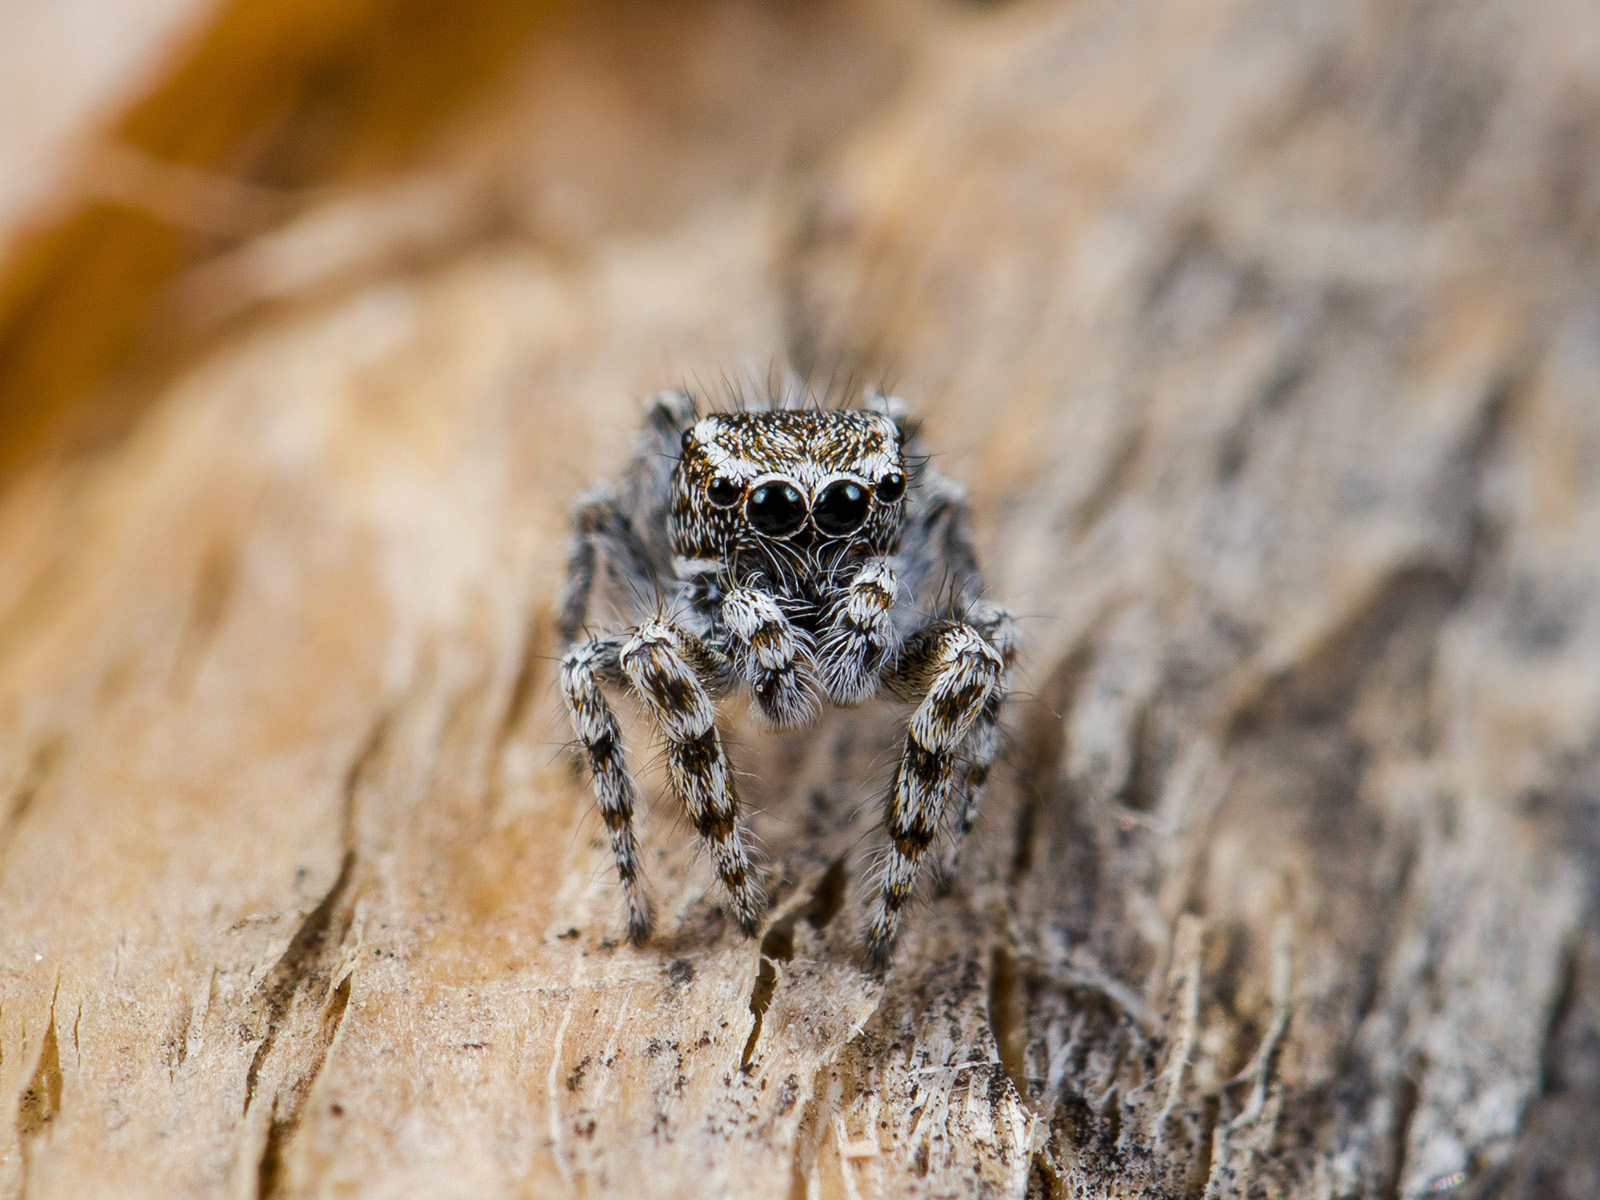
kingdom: Animalia
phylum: Arthropoda
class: Arachnida
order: Araneae
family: Salticidae
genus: Pseudomogrus
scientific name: Pseudomogrus albocinctus
